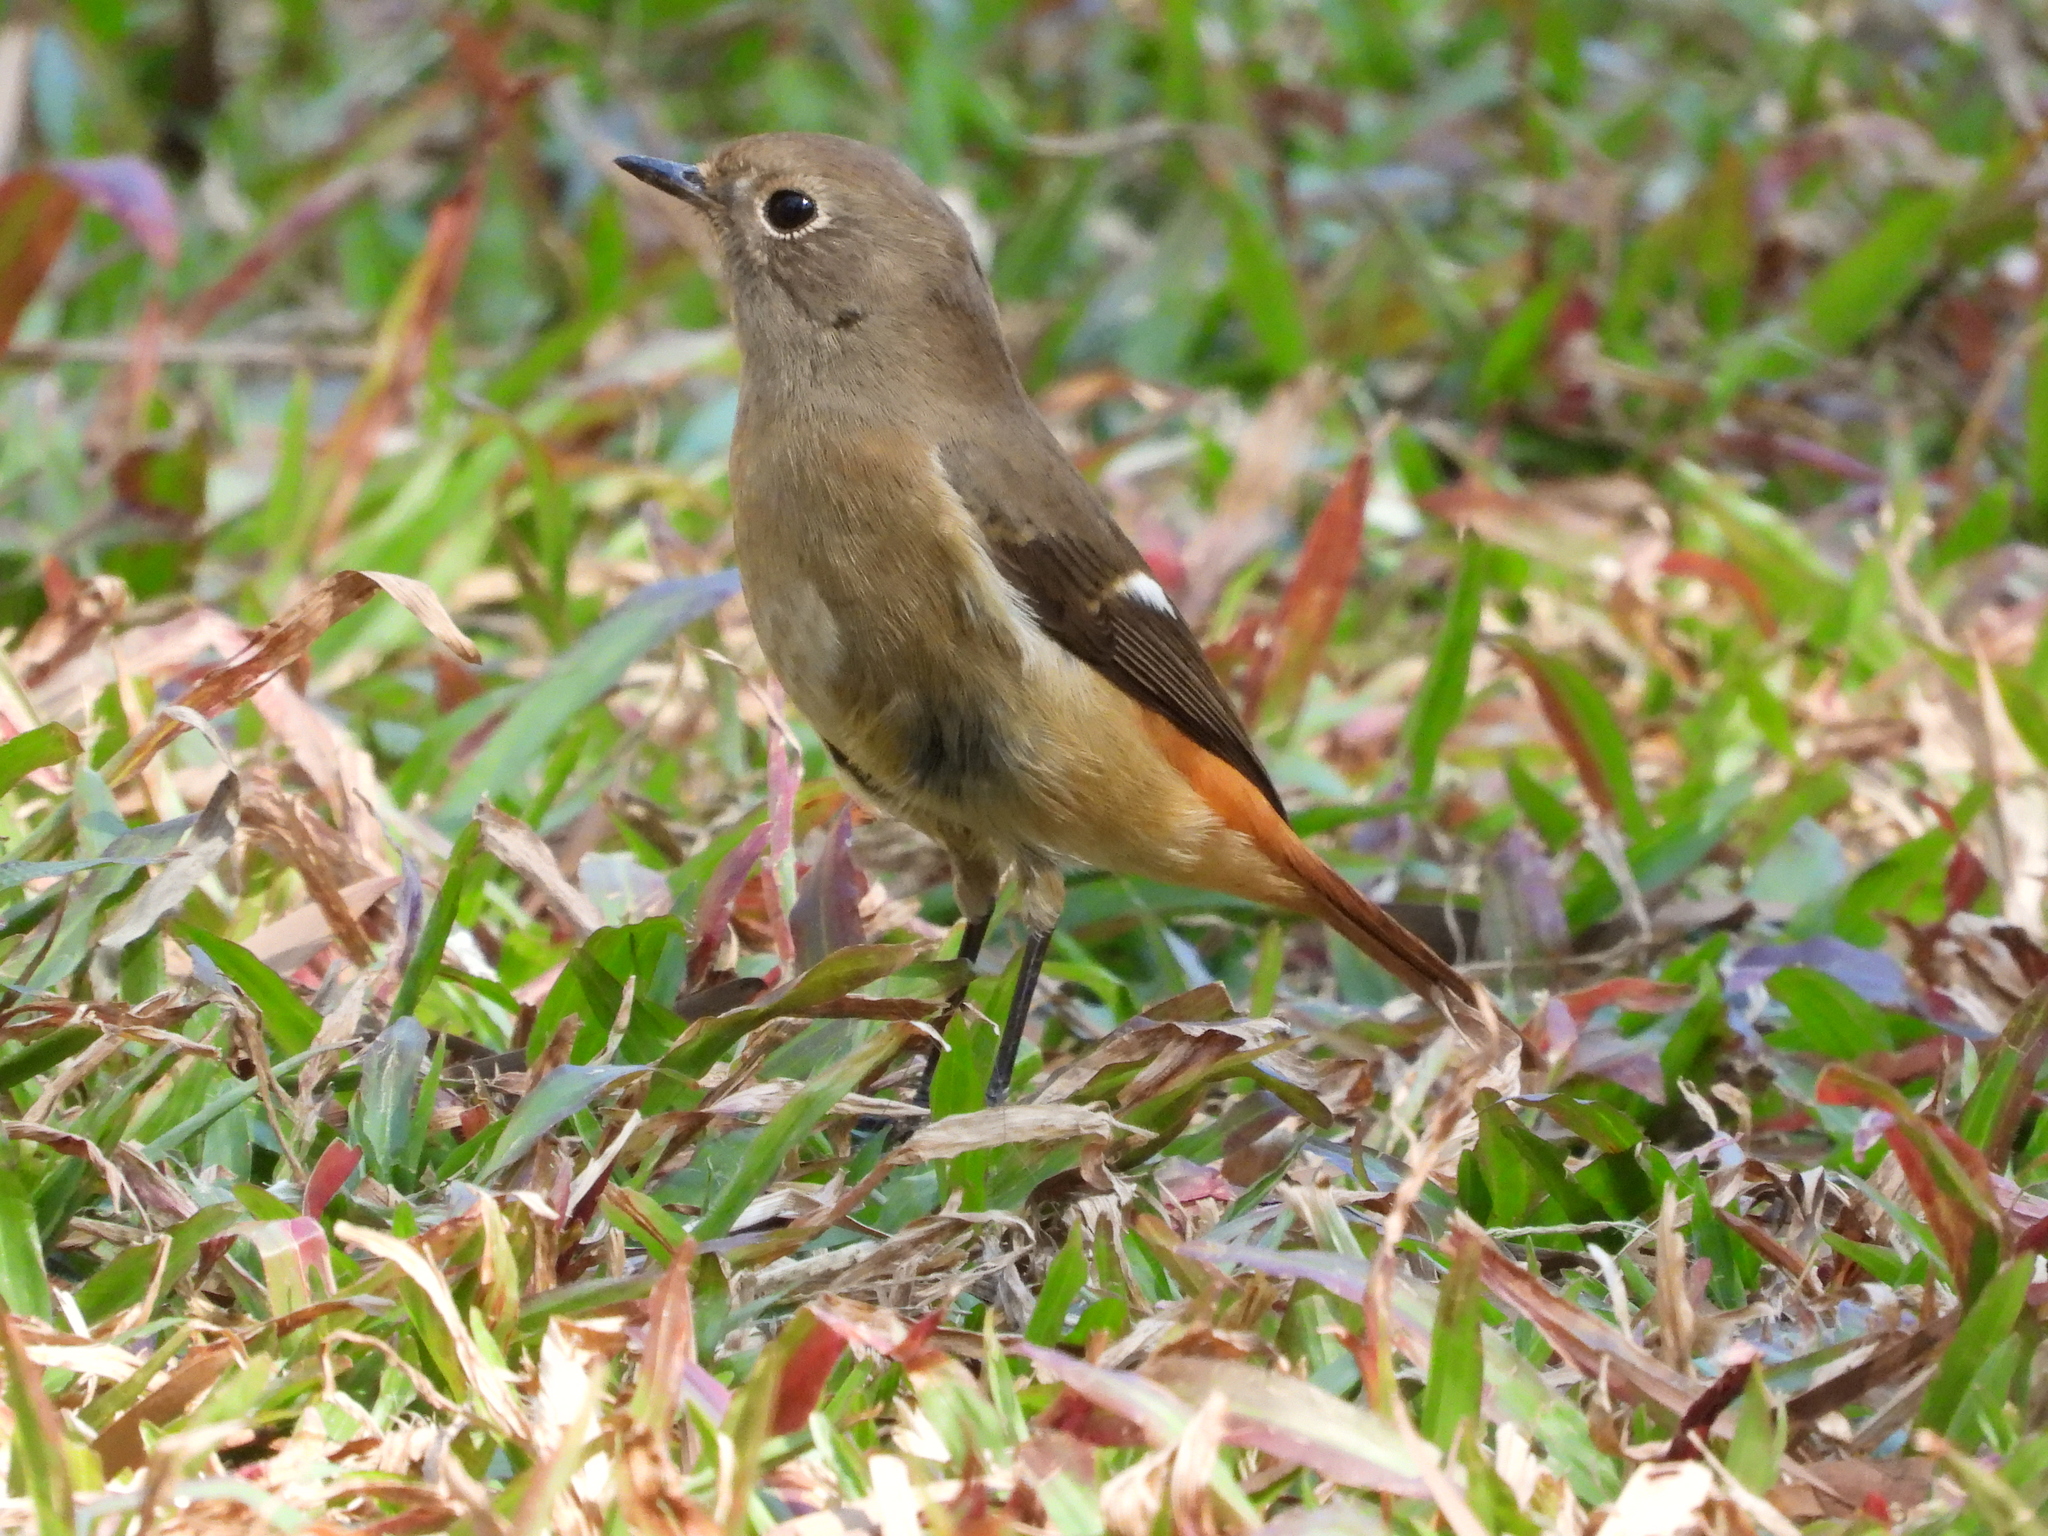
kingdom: Animalia
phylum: Chordata
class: Aves
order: Passeriformes
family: Muscicapidae
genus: Phoenicurus
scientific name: Phoenicurus auroreus
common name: Daurian redstart
